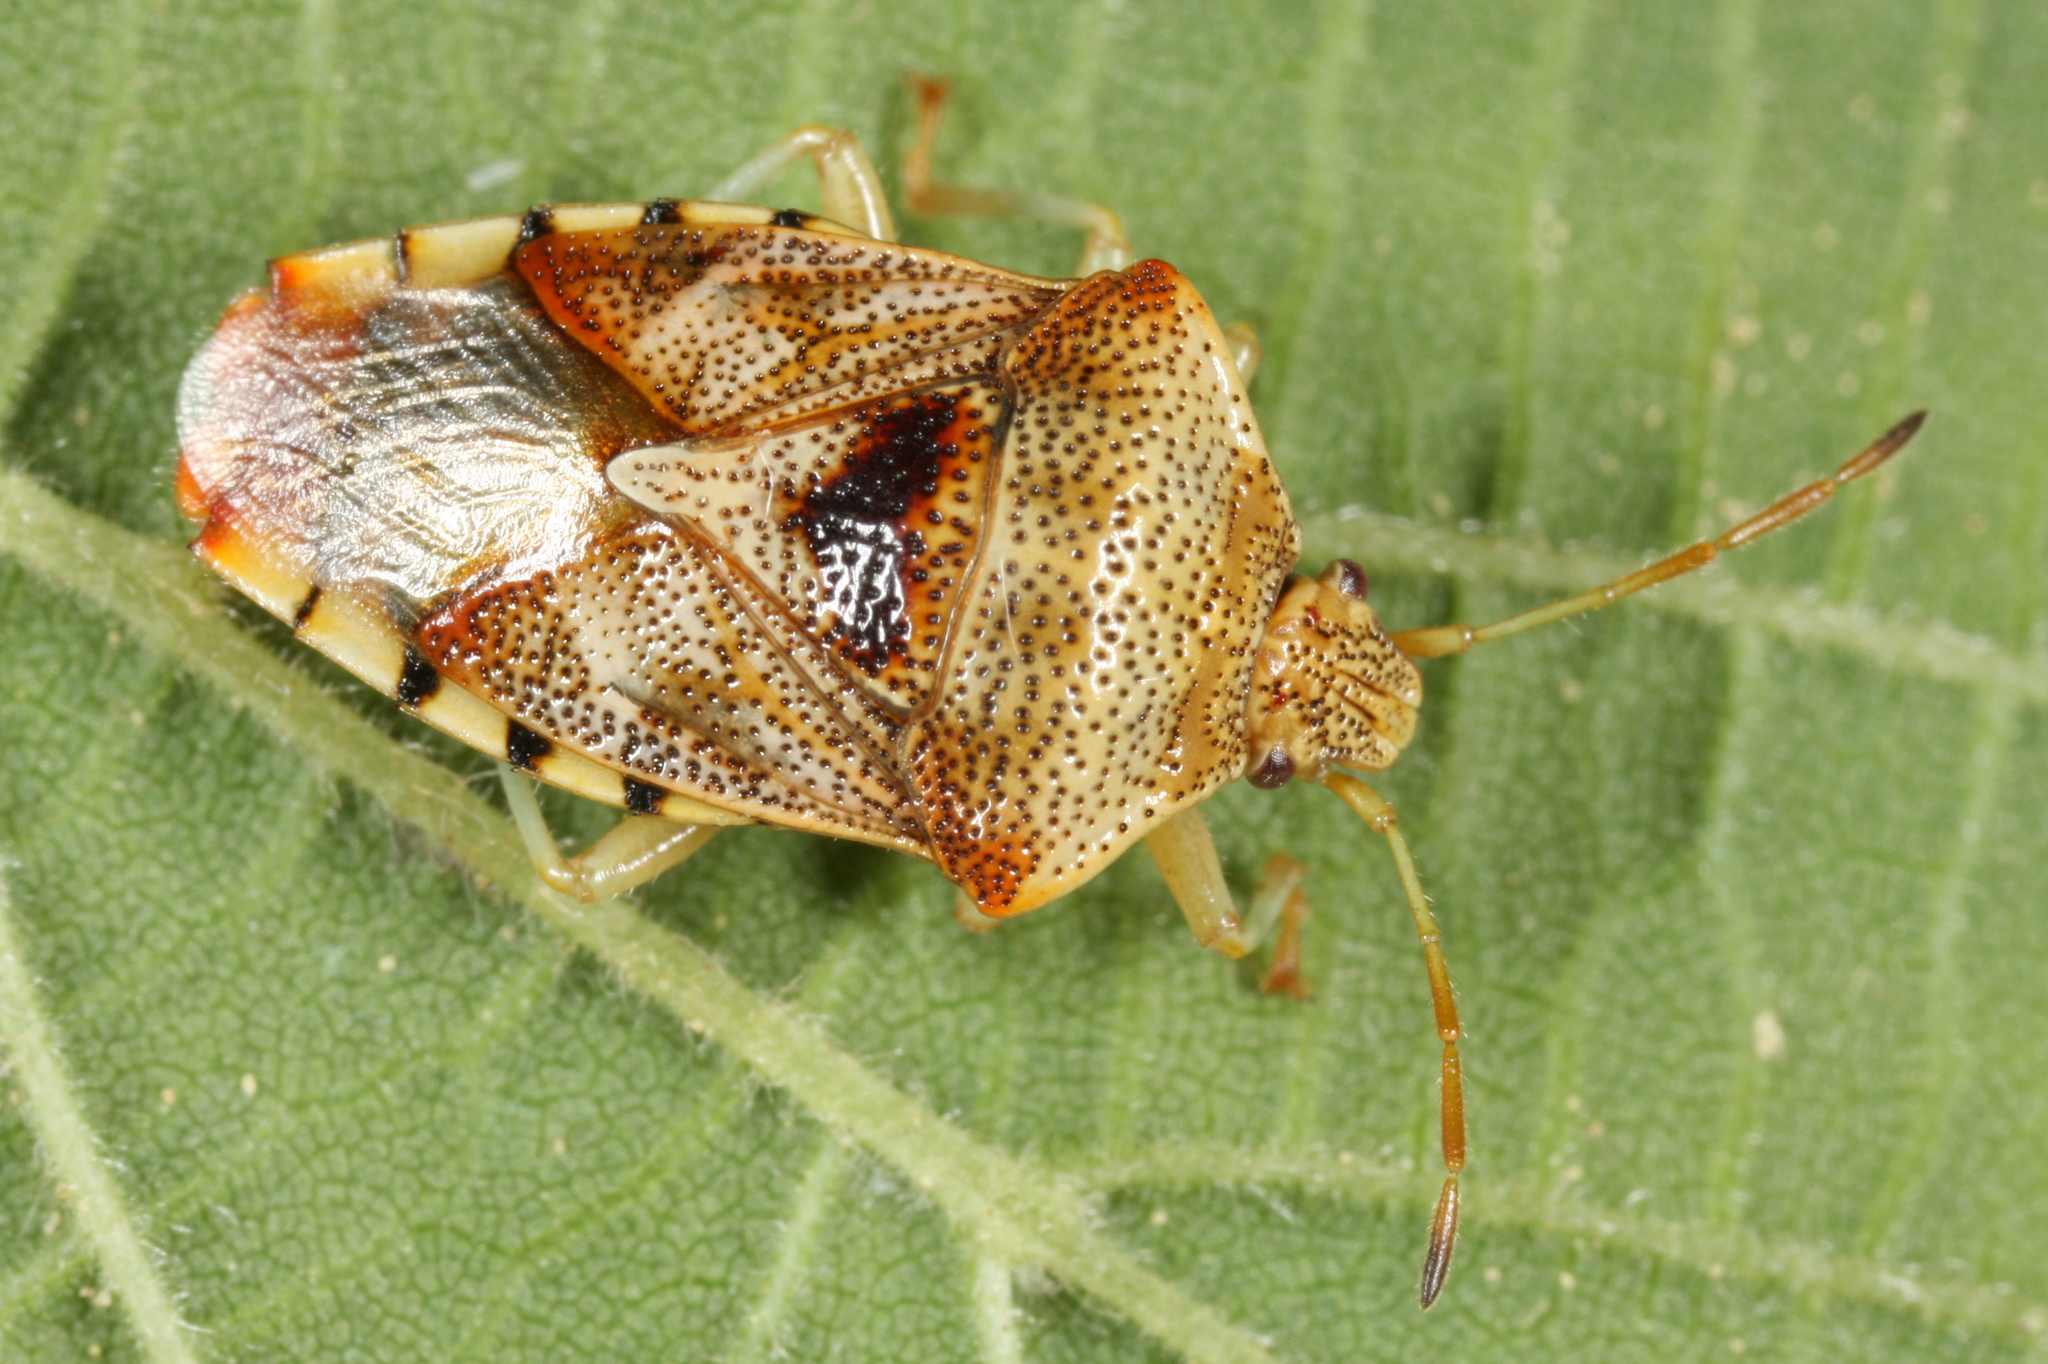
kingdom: Animalia
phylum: Arthropoda
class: Insecta
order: Hemiptera
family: Acanthosomatidae
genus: Elasmucha
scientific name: Elasmucha grisea
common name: Parent bug
